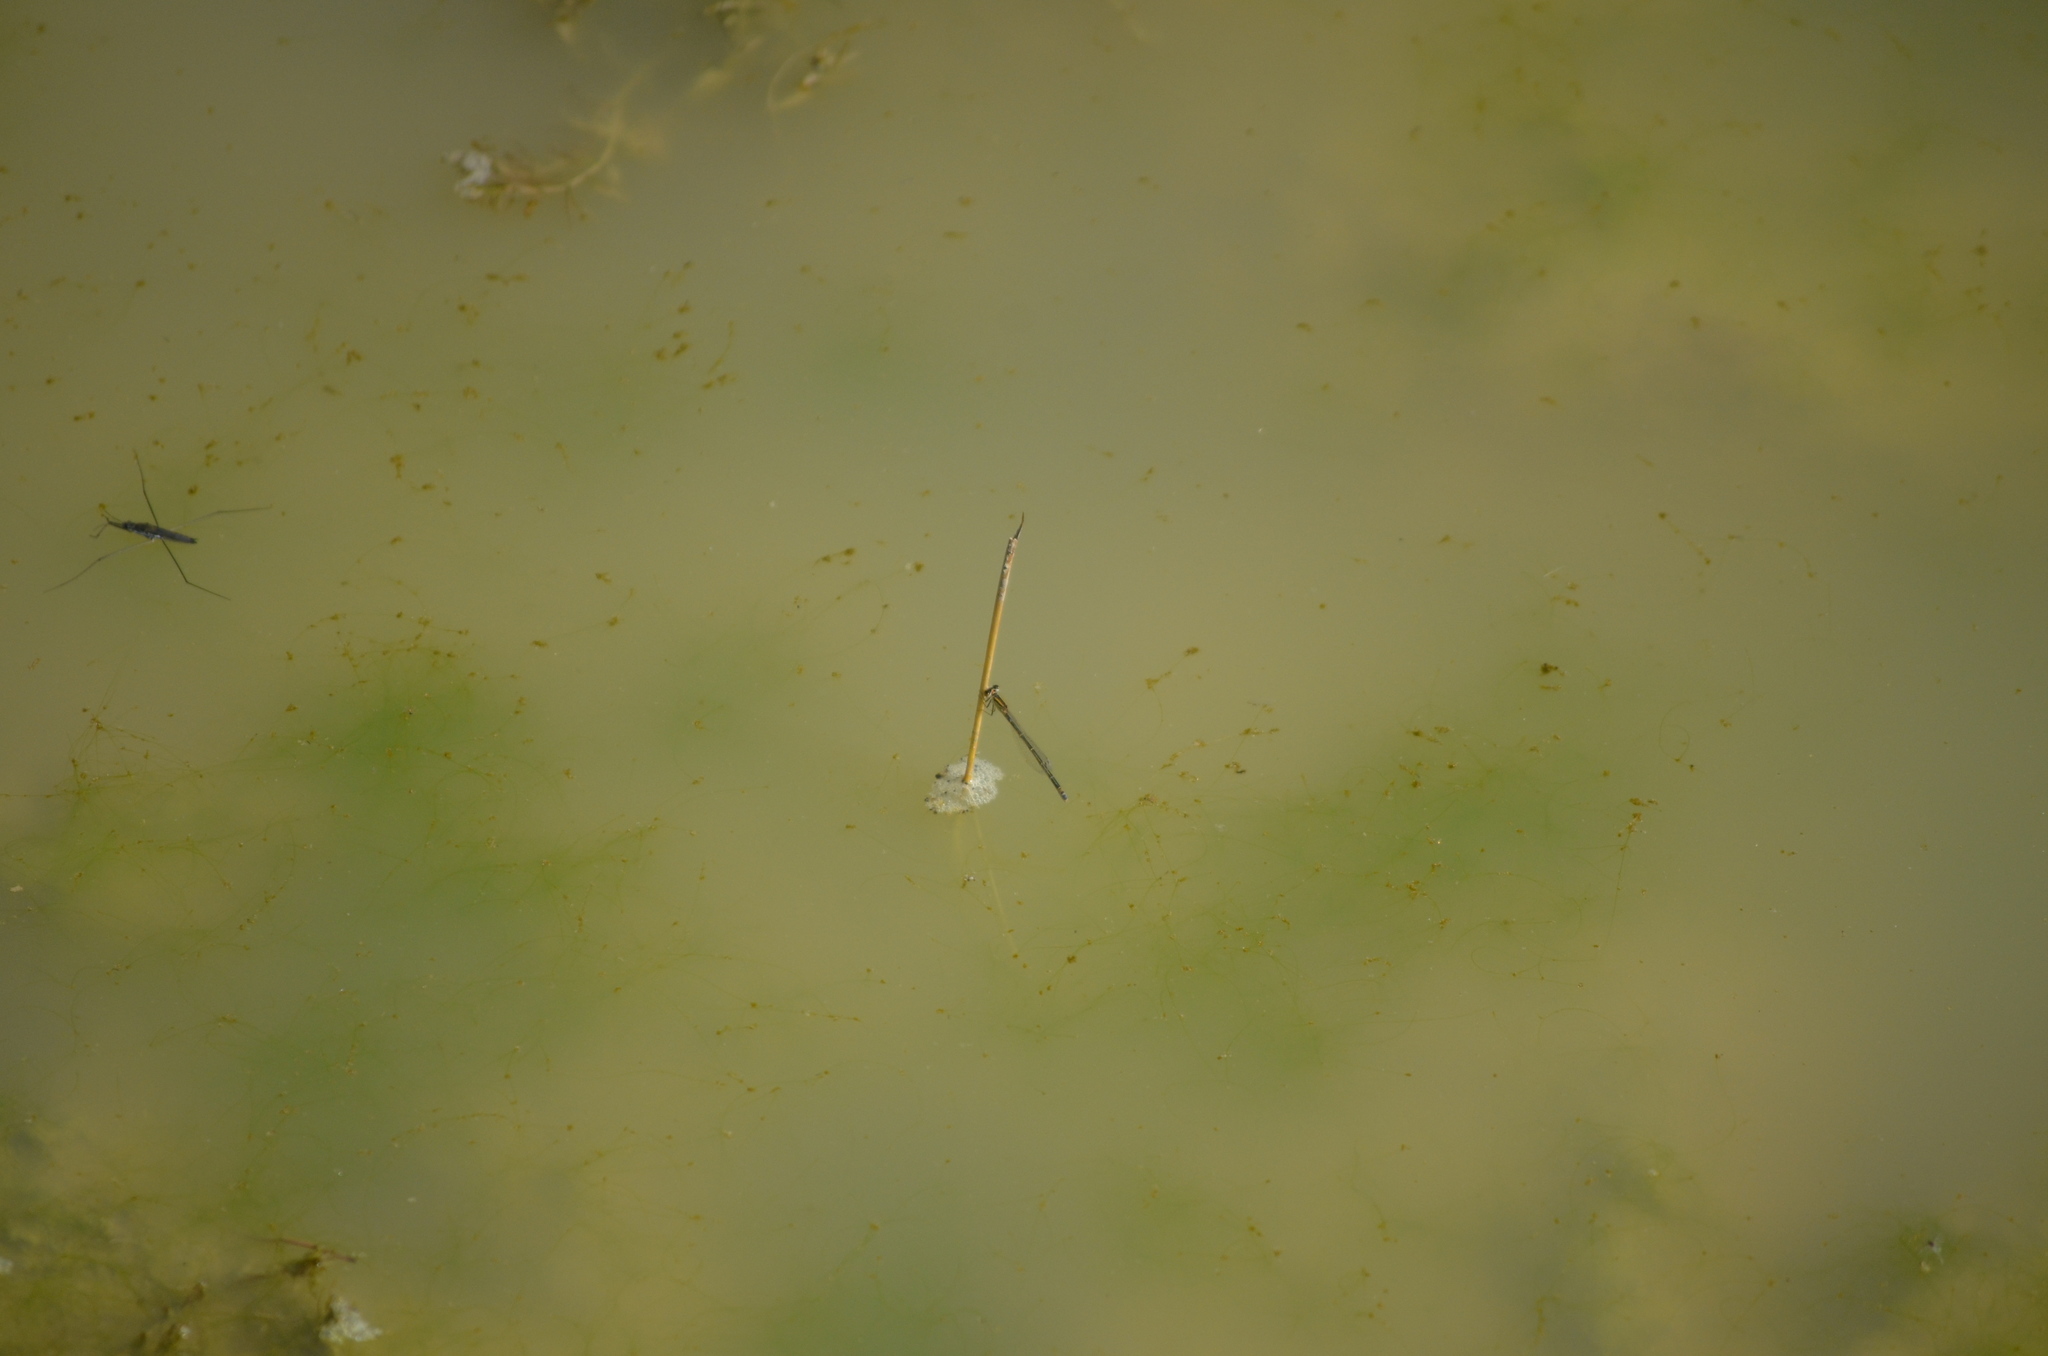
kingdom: Animalia
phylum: Arthropoda
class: Insecta
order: Odonata
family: Coenagrionidae
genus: Ischnura
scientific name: Ischnura graellsii
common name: Iberian bluetail
